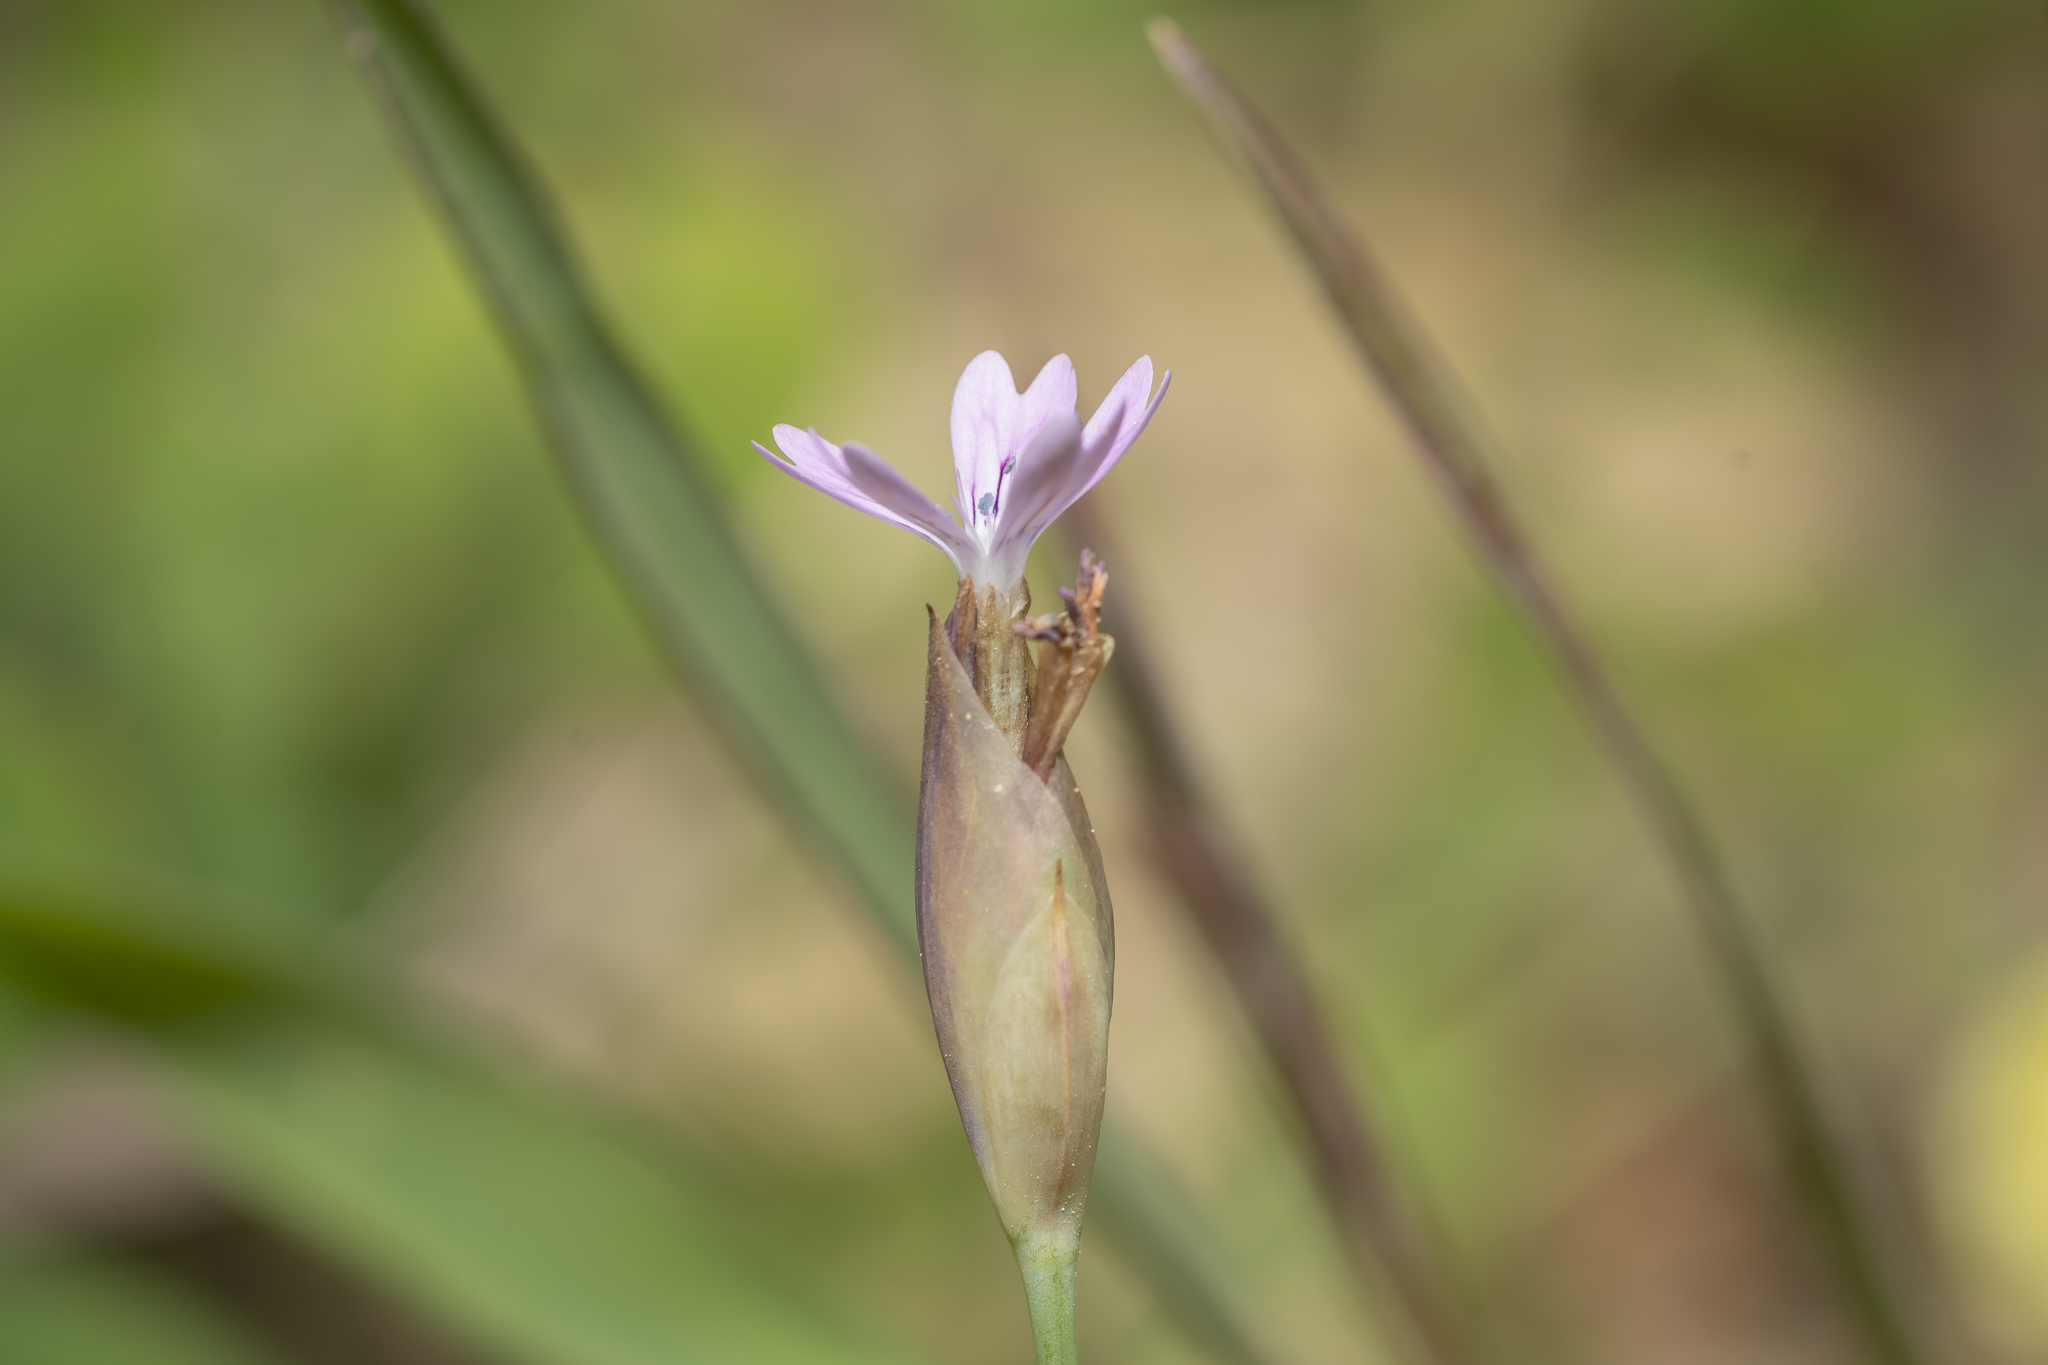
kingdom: Plantae
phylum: Tracheophyta
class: Magnoliopsida
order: Caryophyllales
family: Caryophyllaceae
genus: Petrorhagia
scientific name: Petrorhagia dubia
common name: Hairypink
